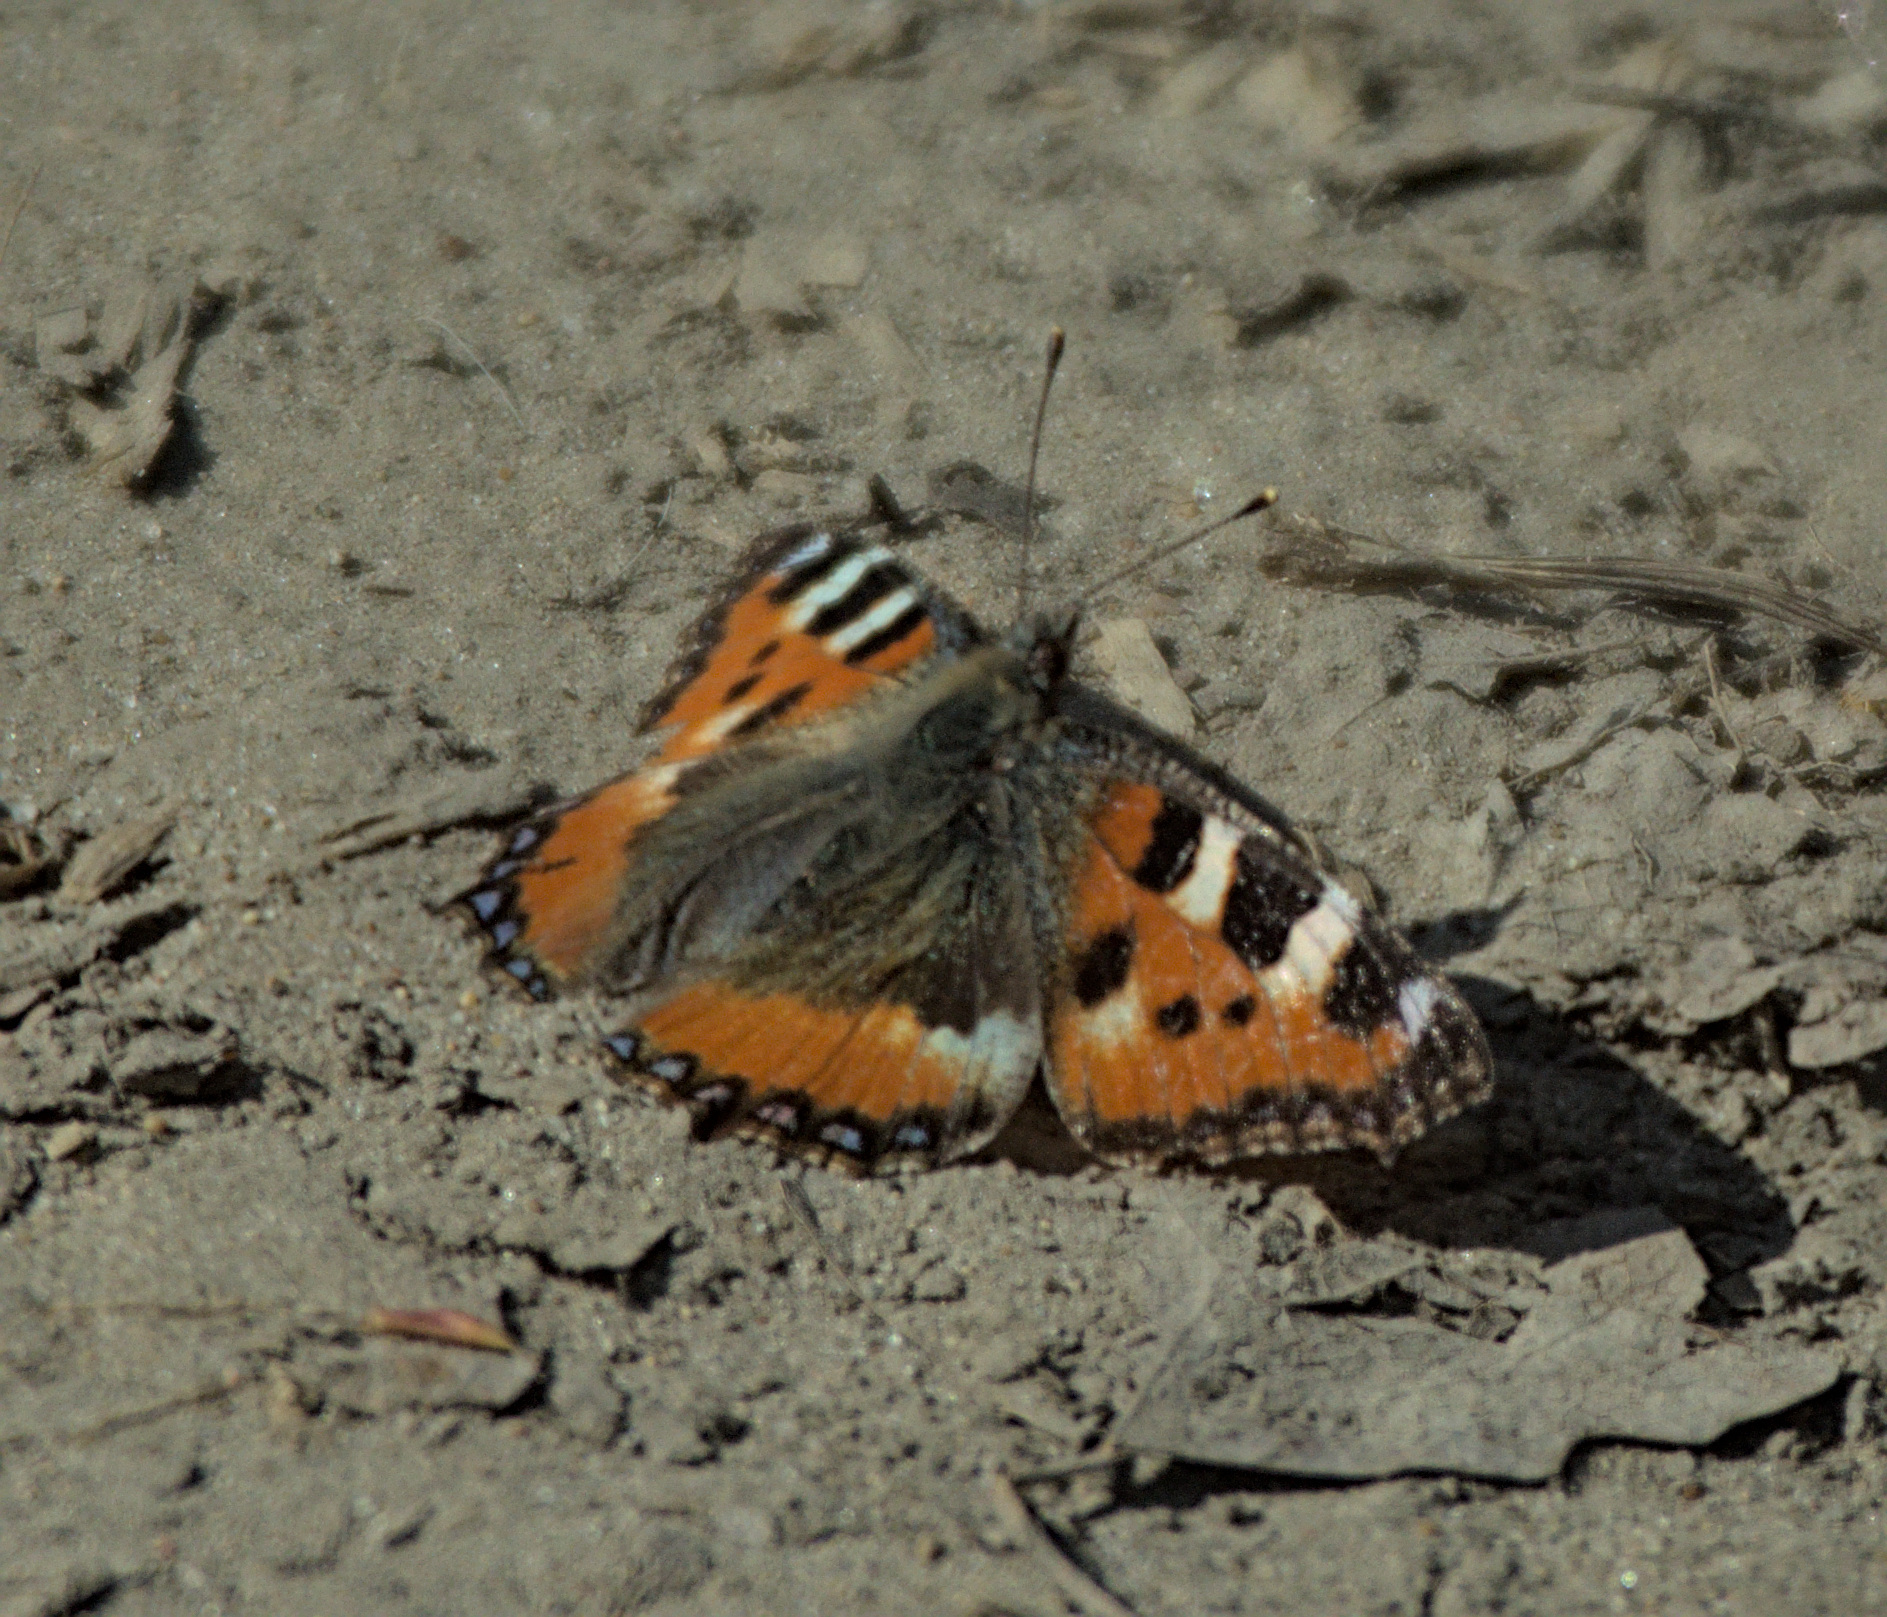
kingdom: Animalia
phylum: Arthropoda
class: Insecta
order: Lepidoptera
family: Nymphalidae
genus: Aglais
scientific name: Aglais urticae
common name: Small tortoiseshell
